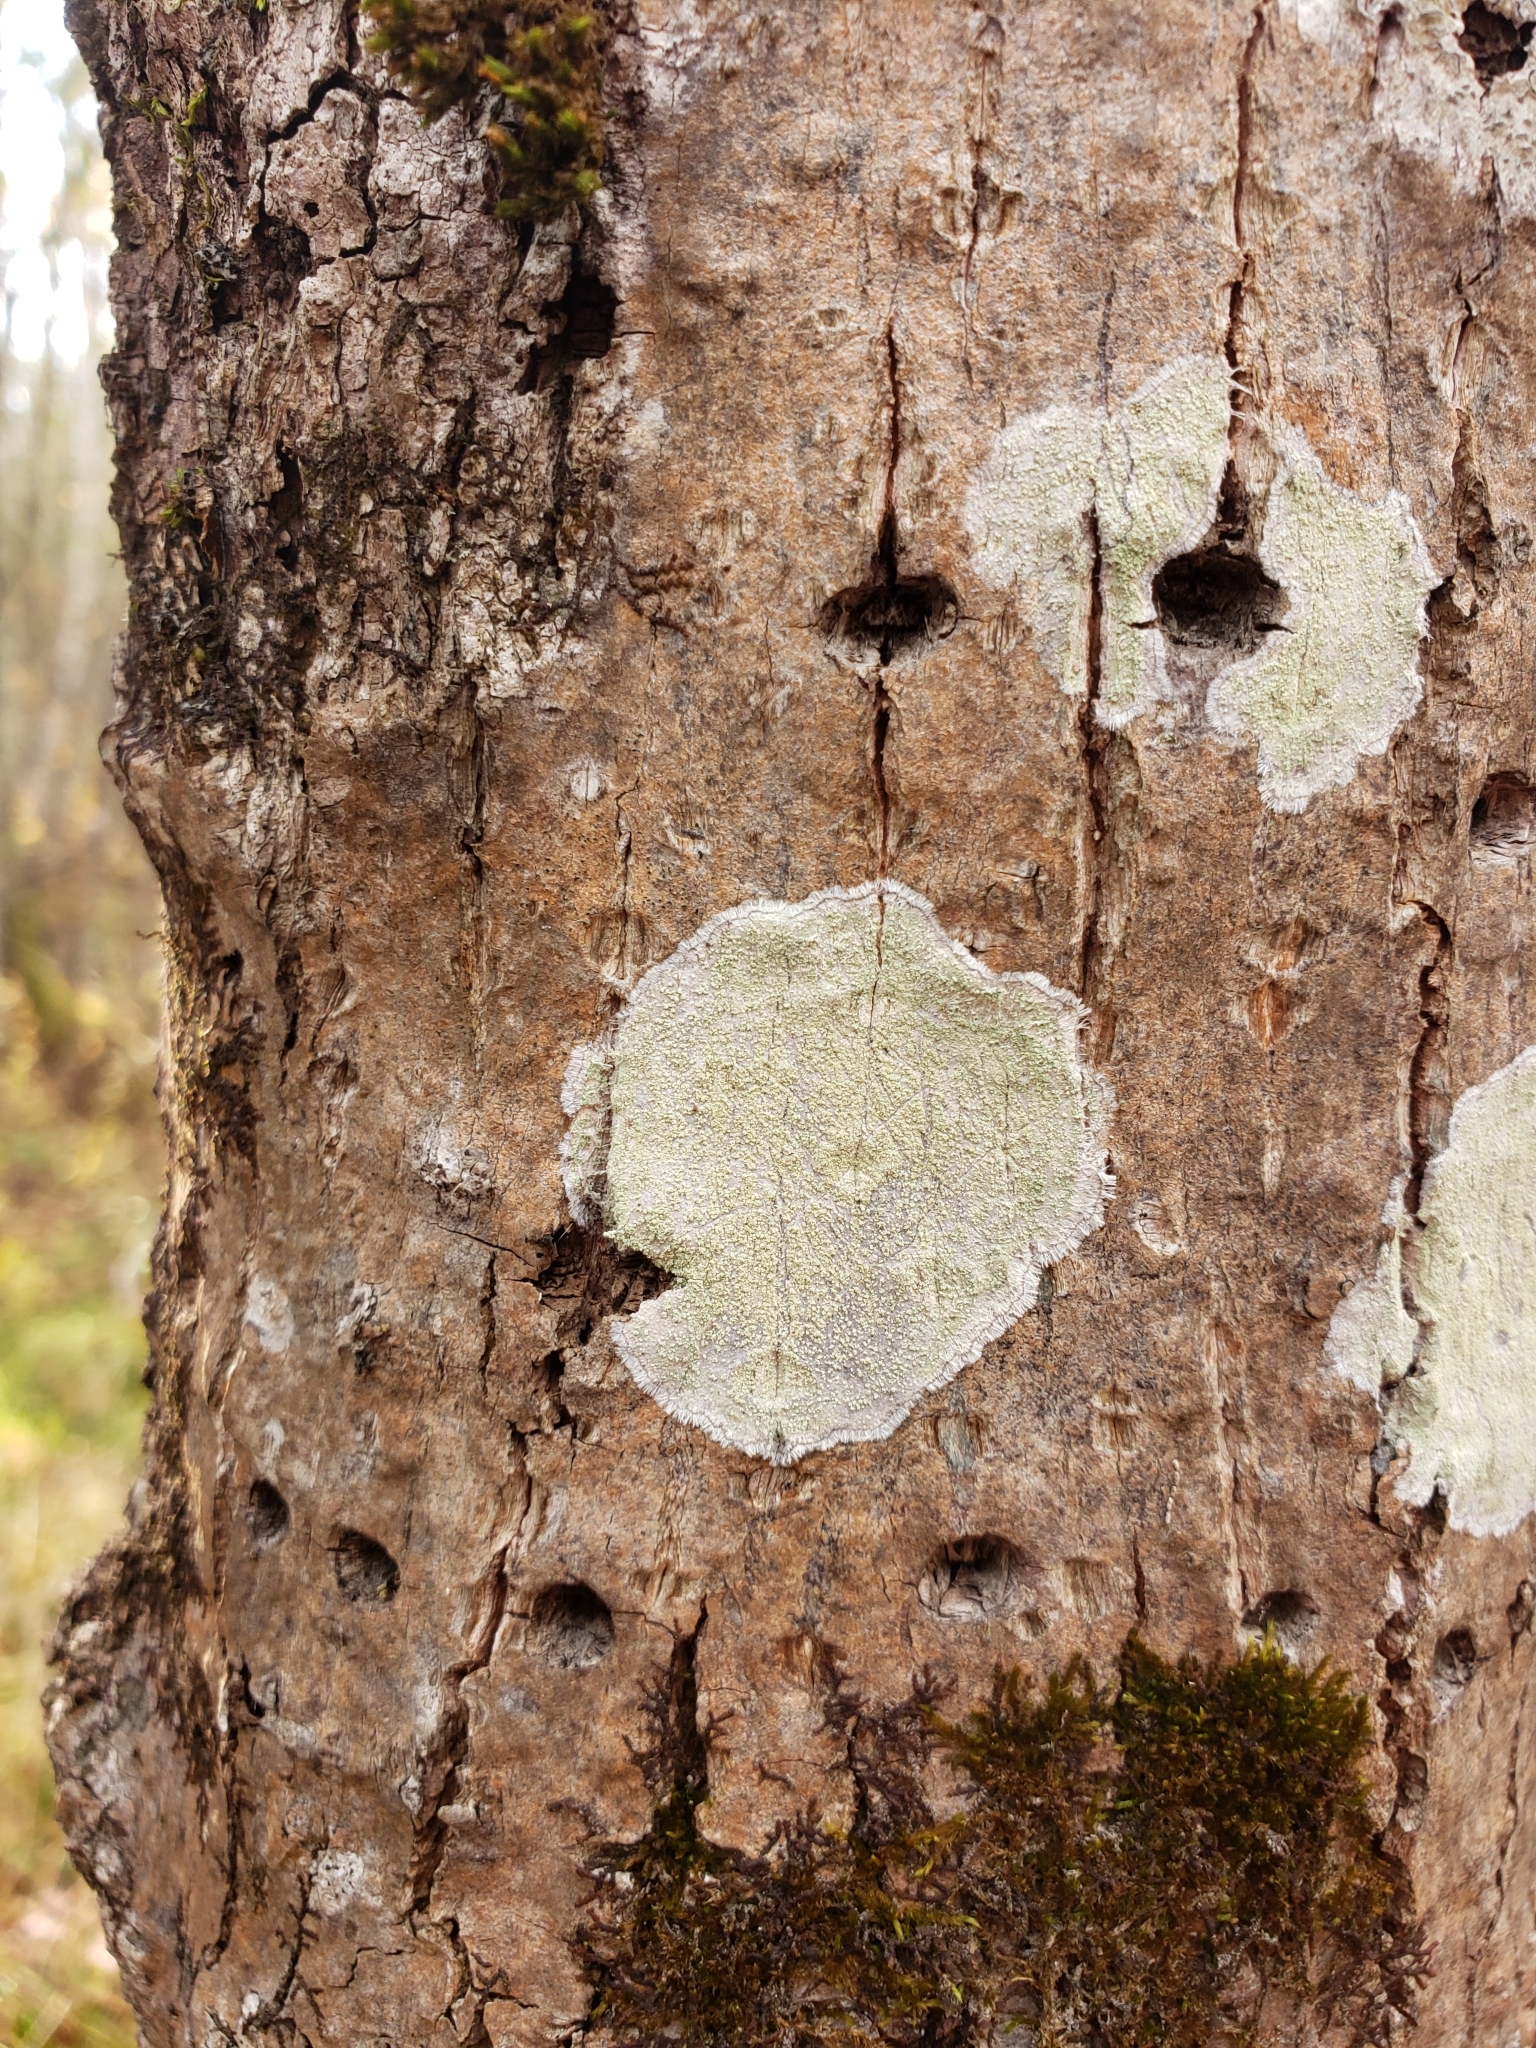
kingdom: Fungi
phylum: Ascomycota
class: Lecanoromycetes
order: Pertusariales
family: Pertusariaceae
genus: Verseghya
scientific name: Verseghya thysanophora
